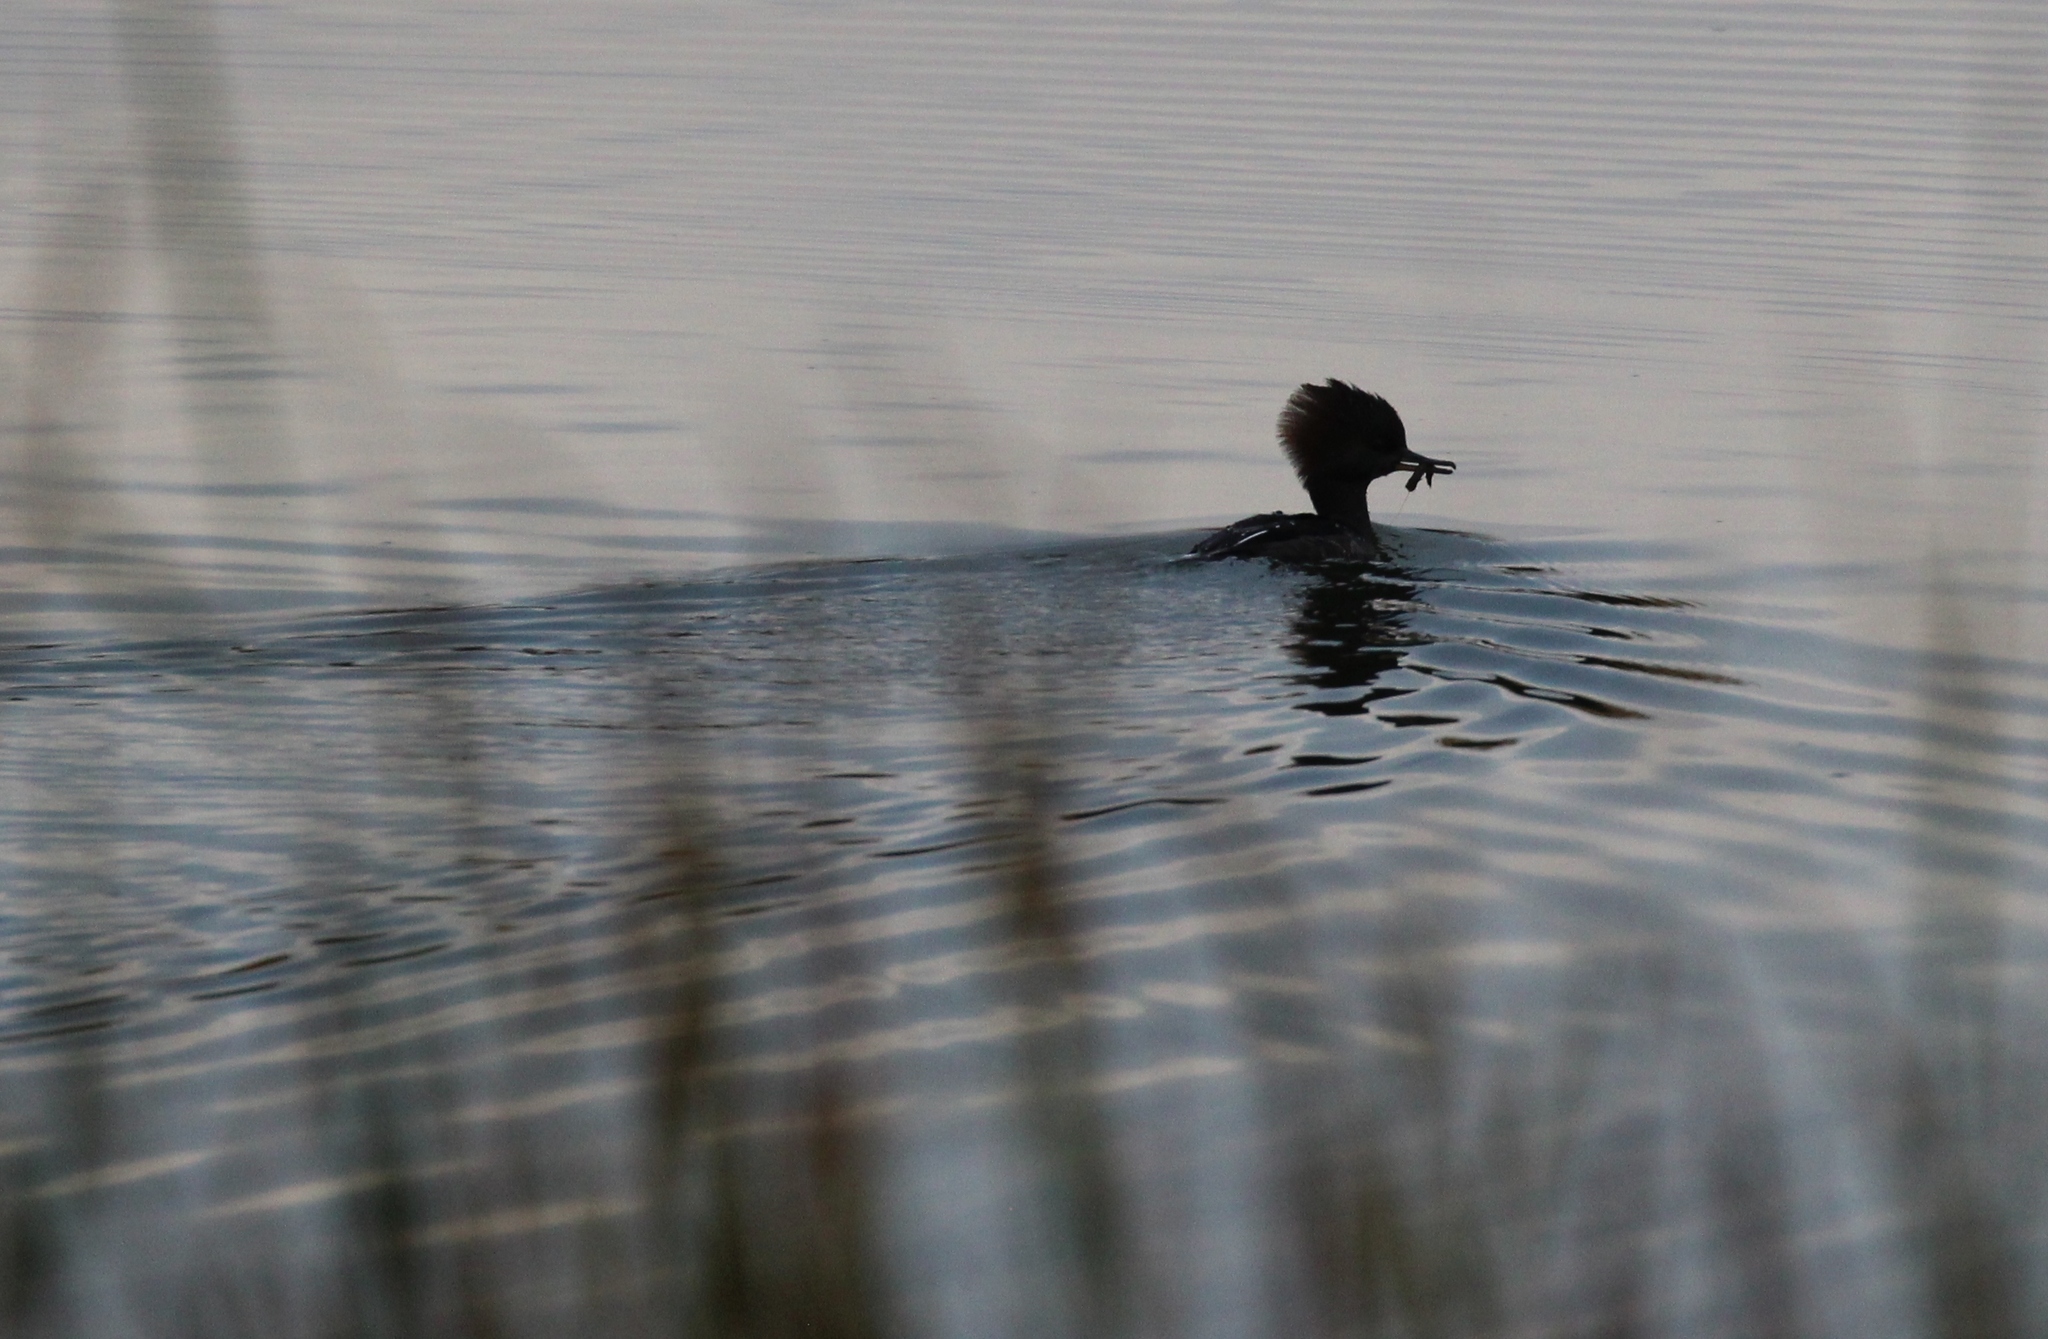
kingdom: Animalia
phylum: Chordata
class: Aves
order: Anseriformes
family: Anatidae
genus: Lophodytes
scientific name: Lophodytes cucullatus
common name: Hooded merganser
